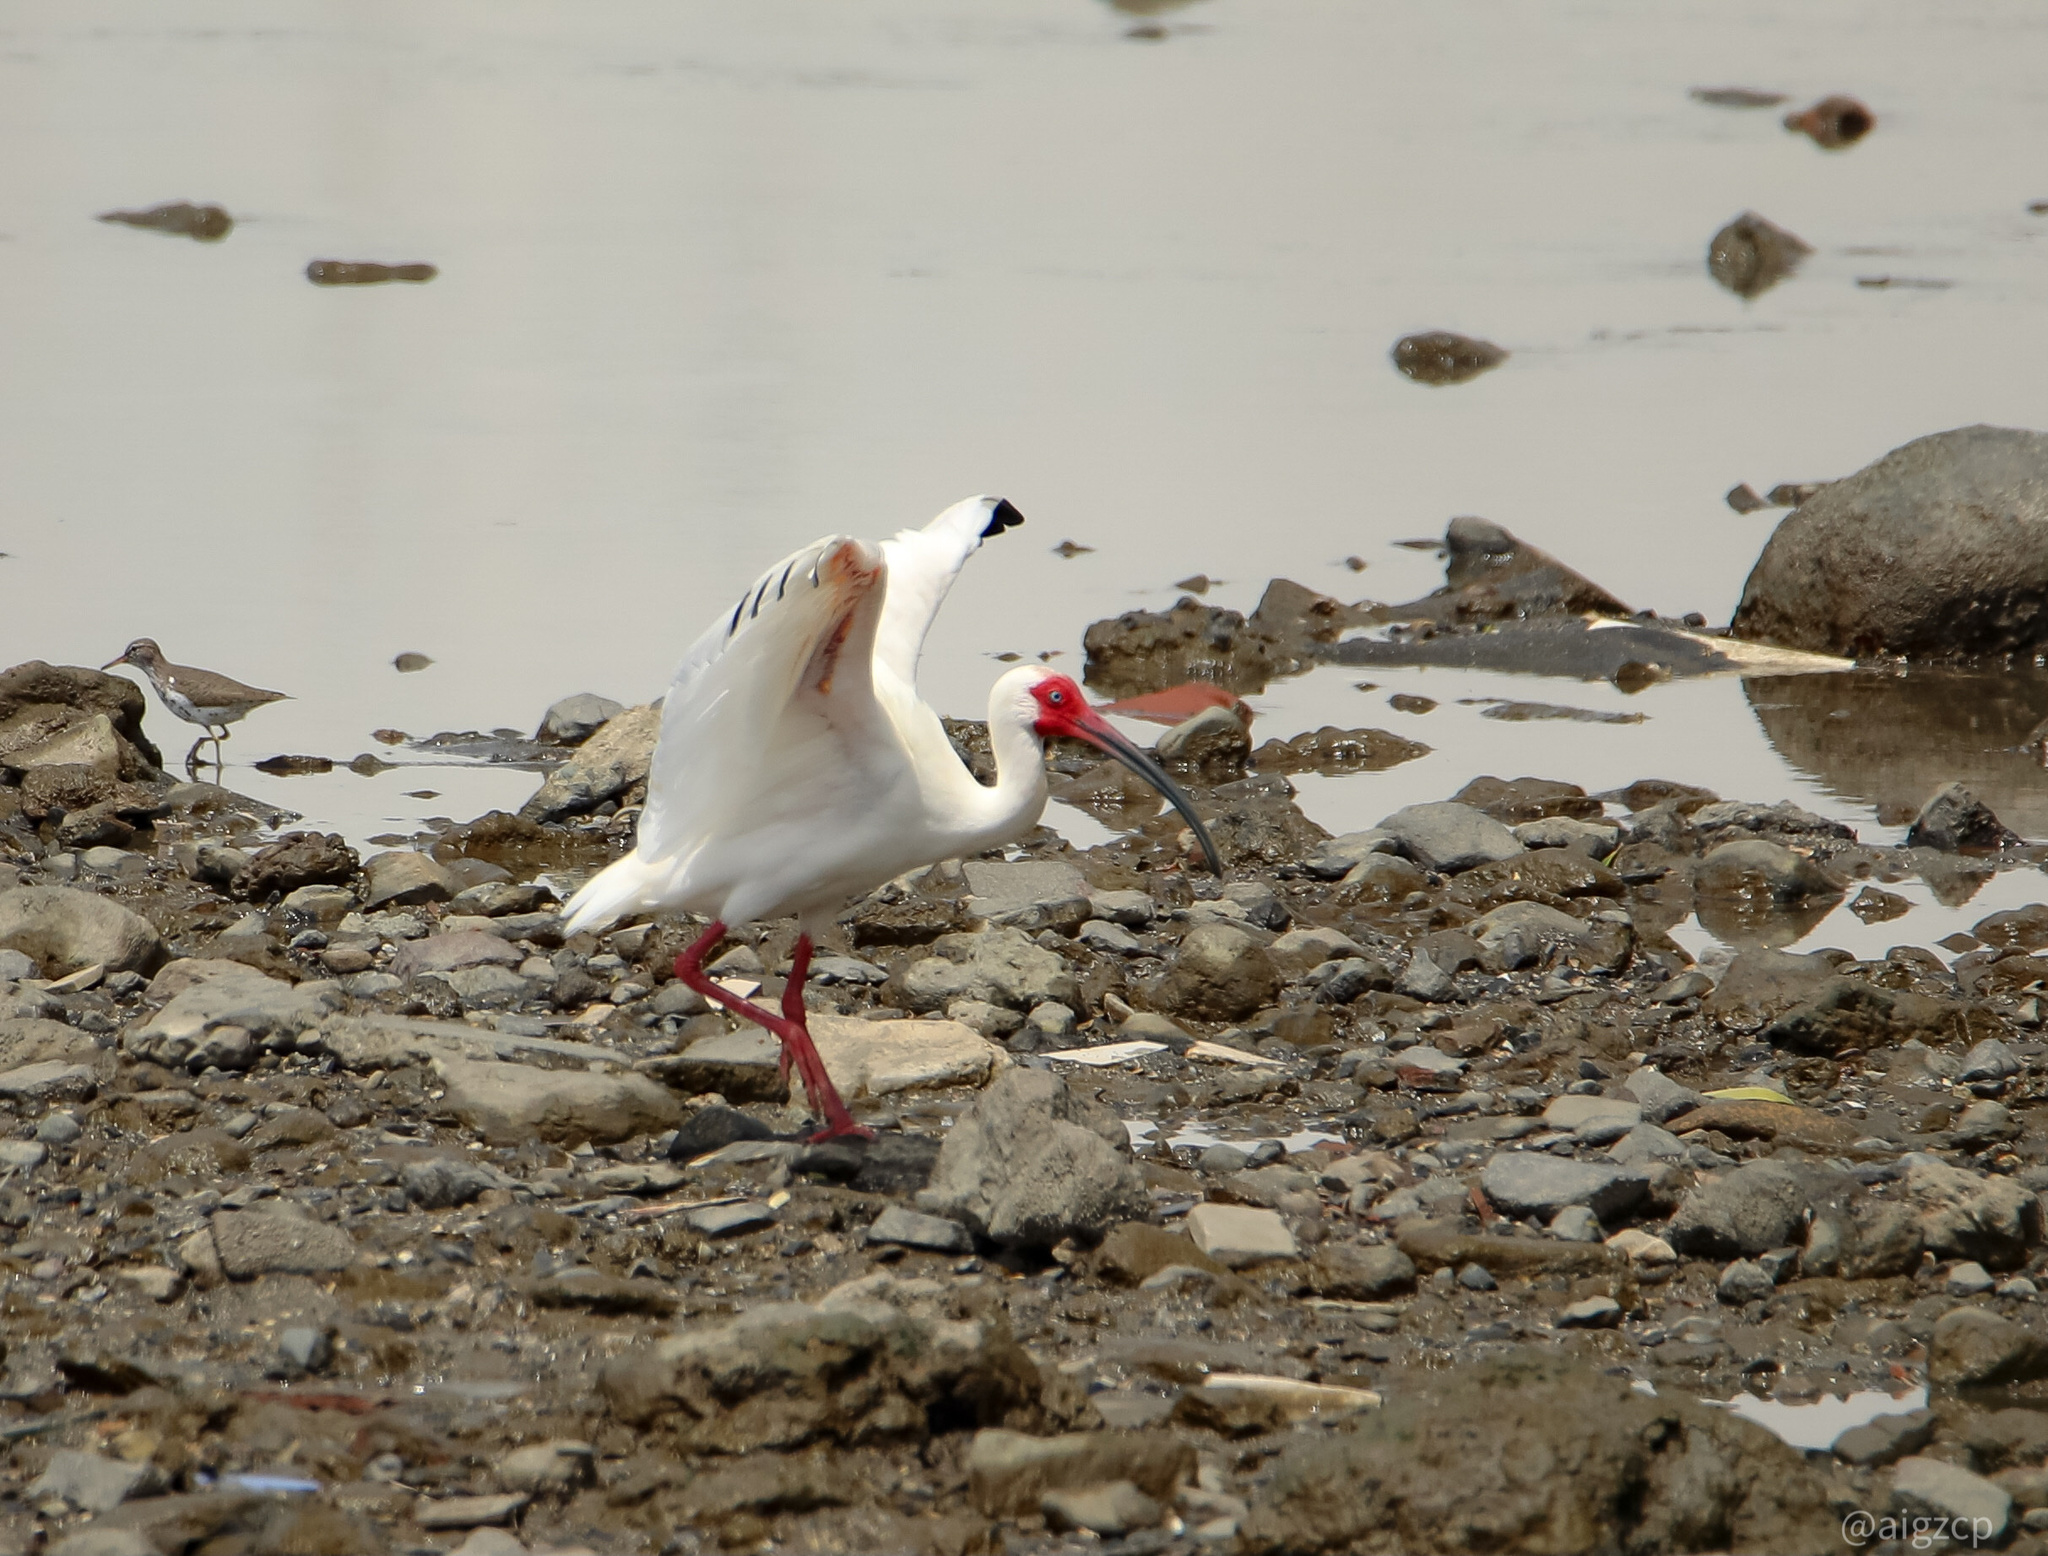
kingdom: Animalia
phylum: Chordata
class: Aves
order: Pelecaniformes
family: Threskiornithidae
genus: Eudocimus
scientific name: Eudocimus albus
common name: White ibis
